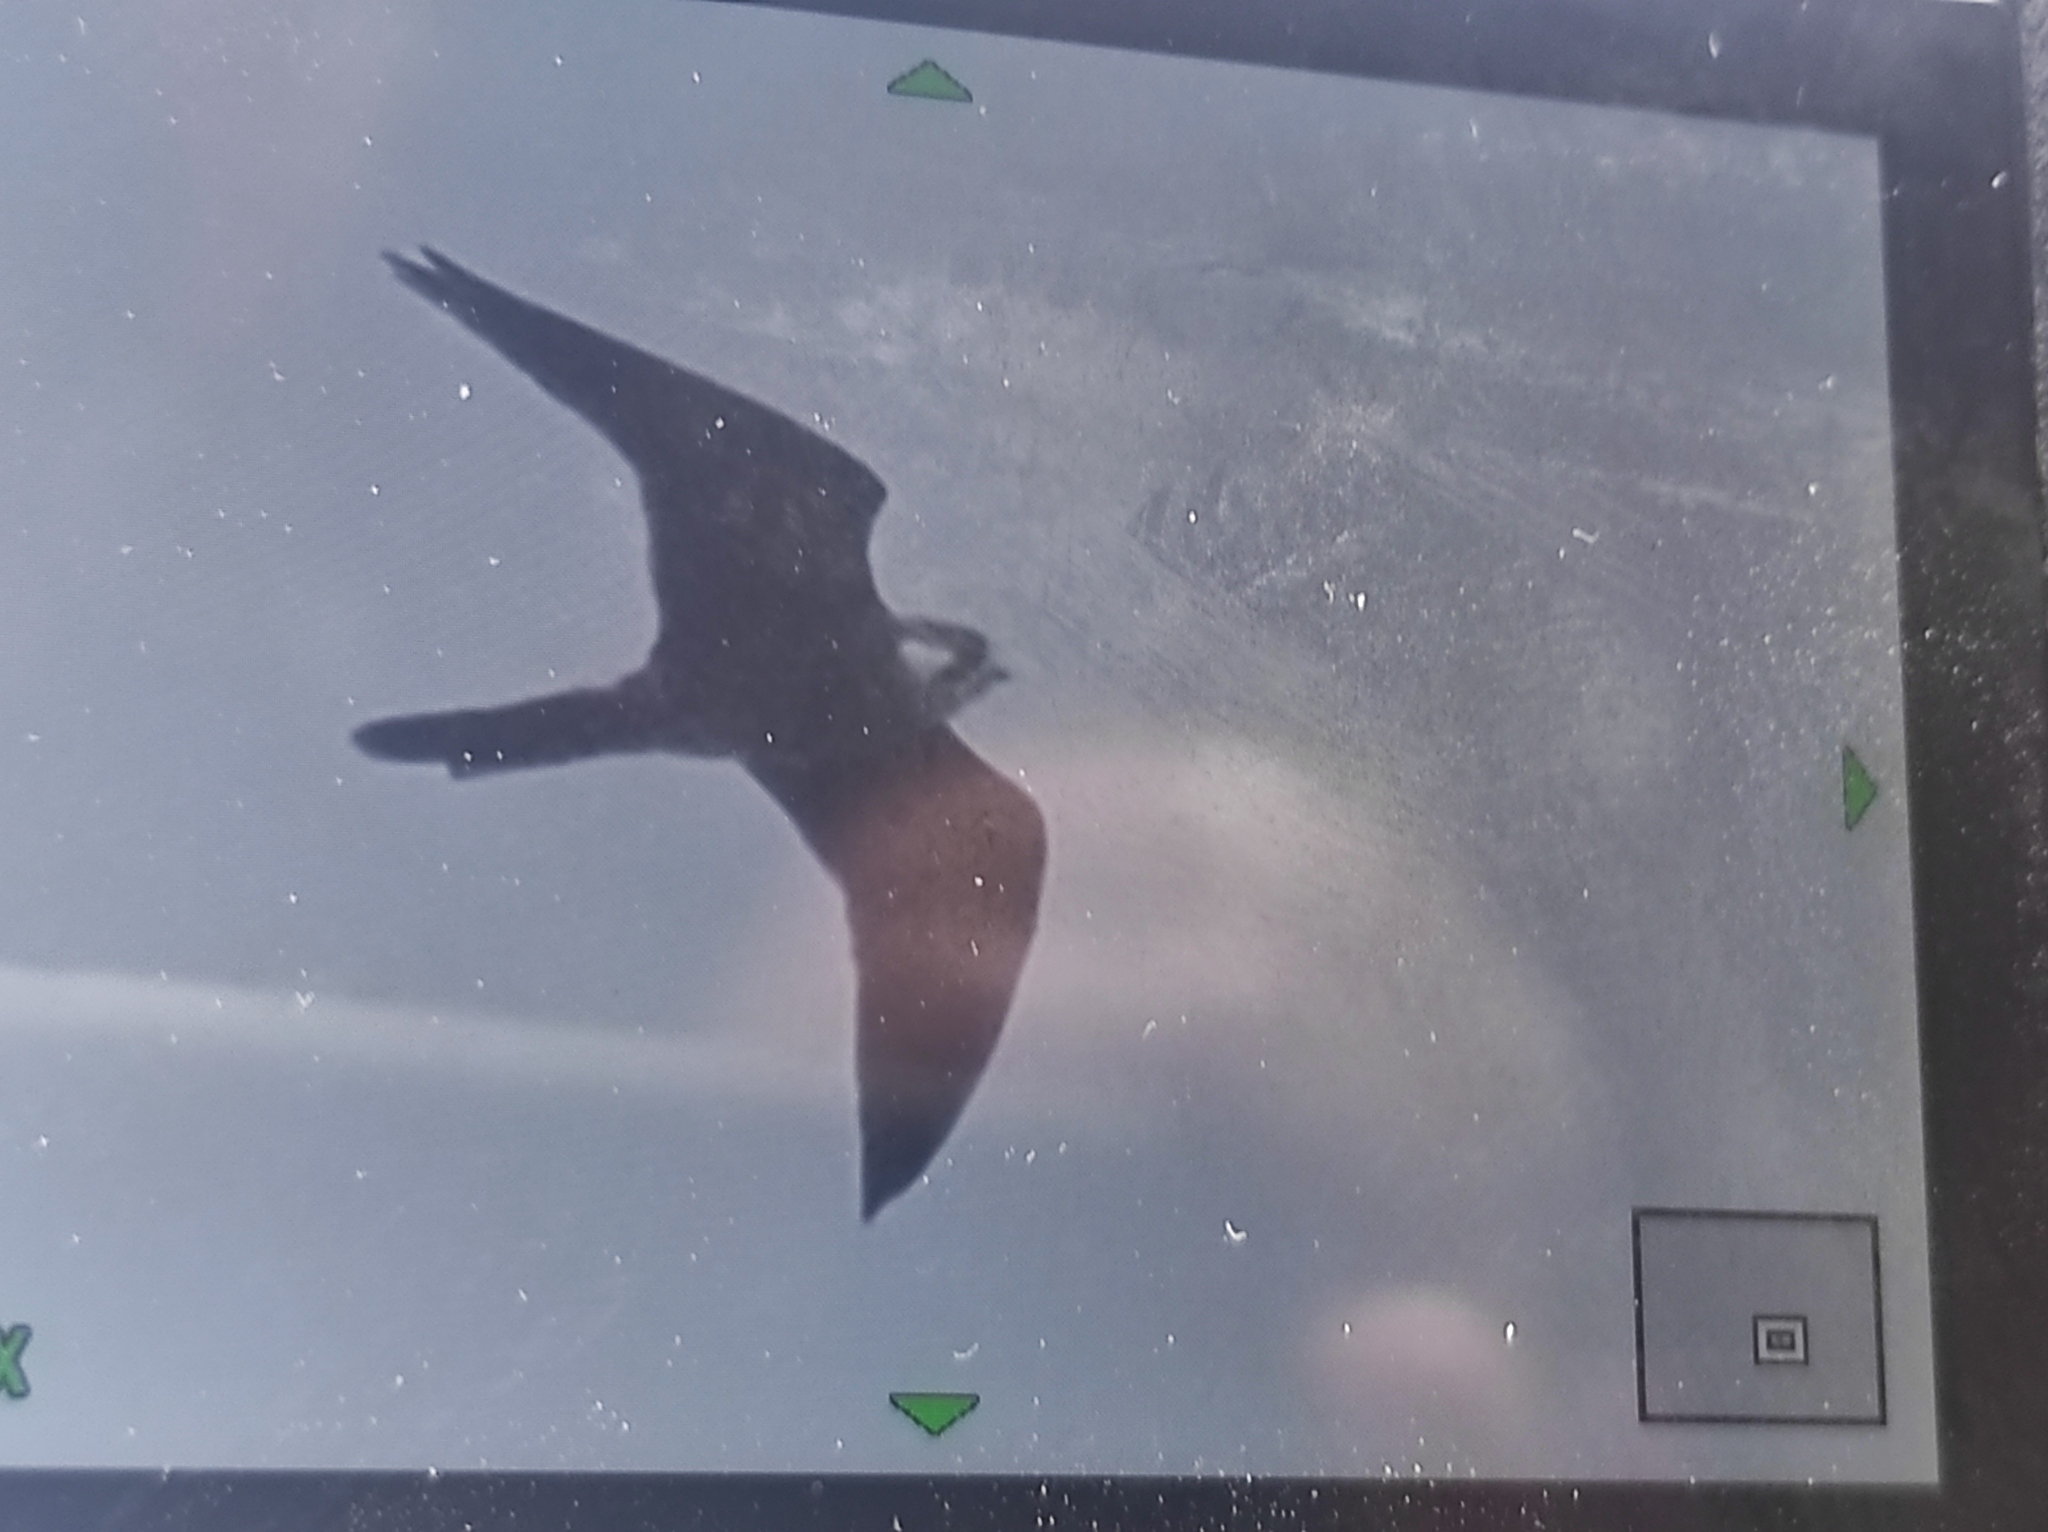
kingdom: Animalia
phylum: Chordata
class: Aves
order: Falconiformes
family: Falconidae
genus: Falco
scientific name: Falco eleonorae
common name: Eleonora's falcon
